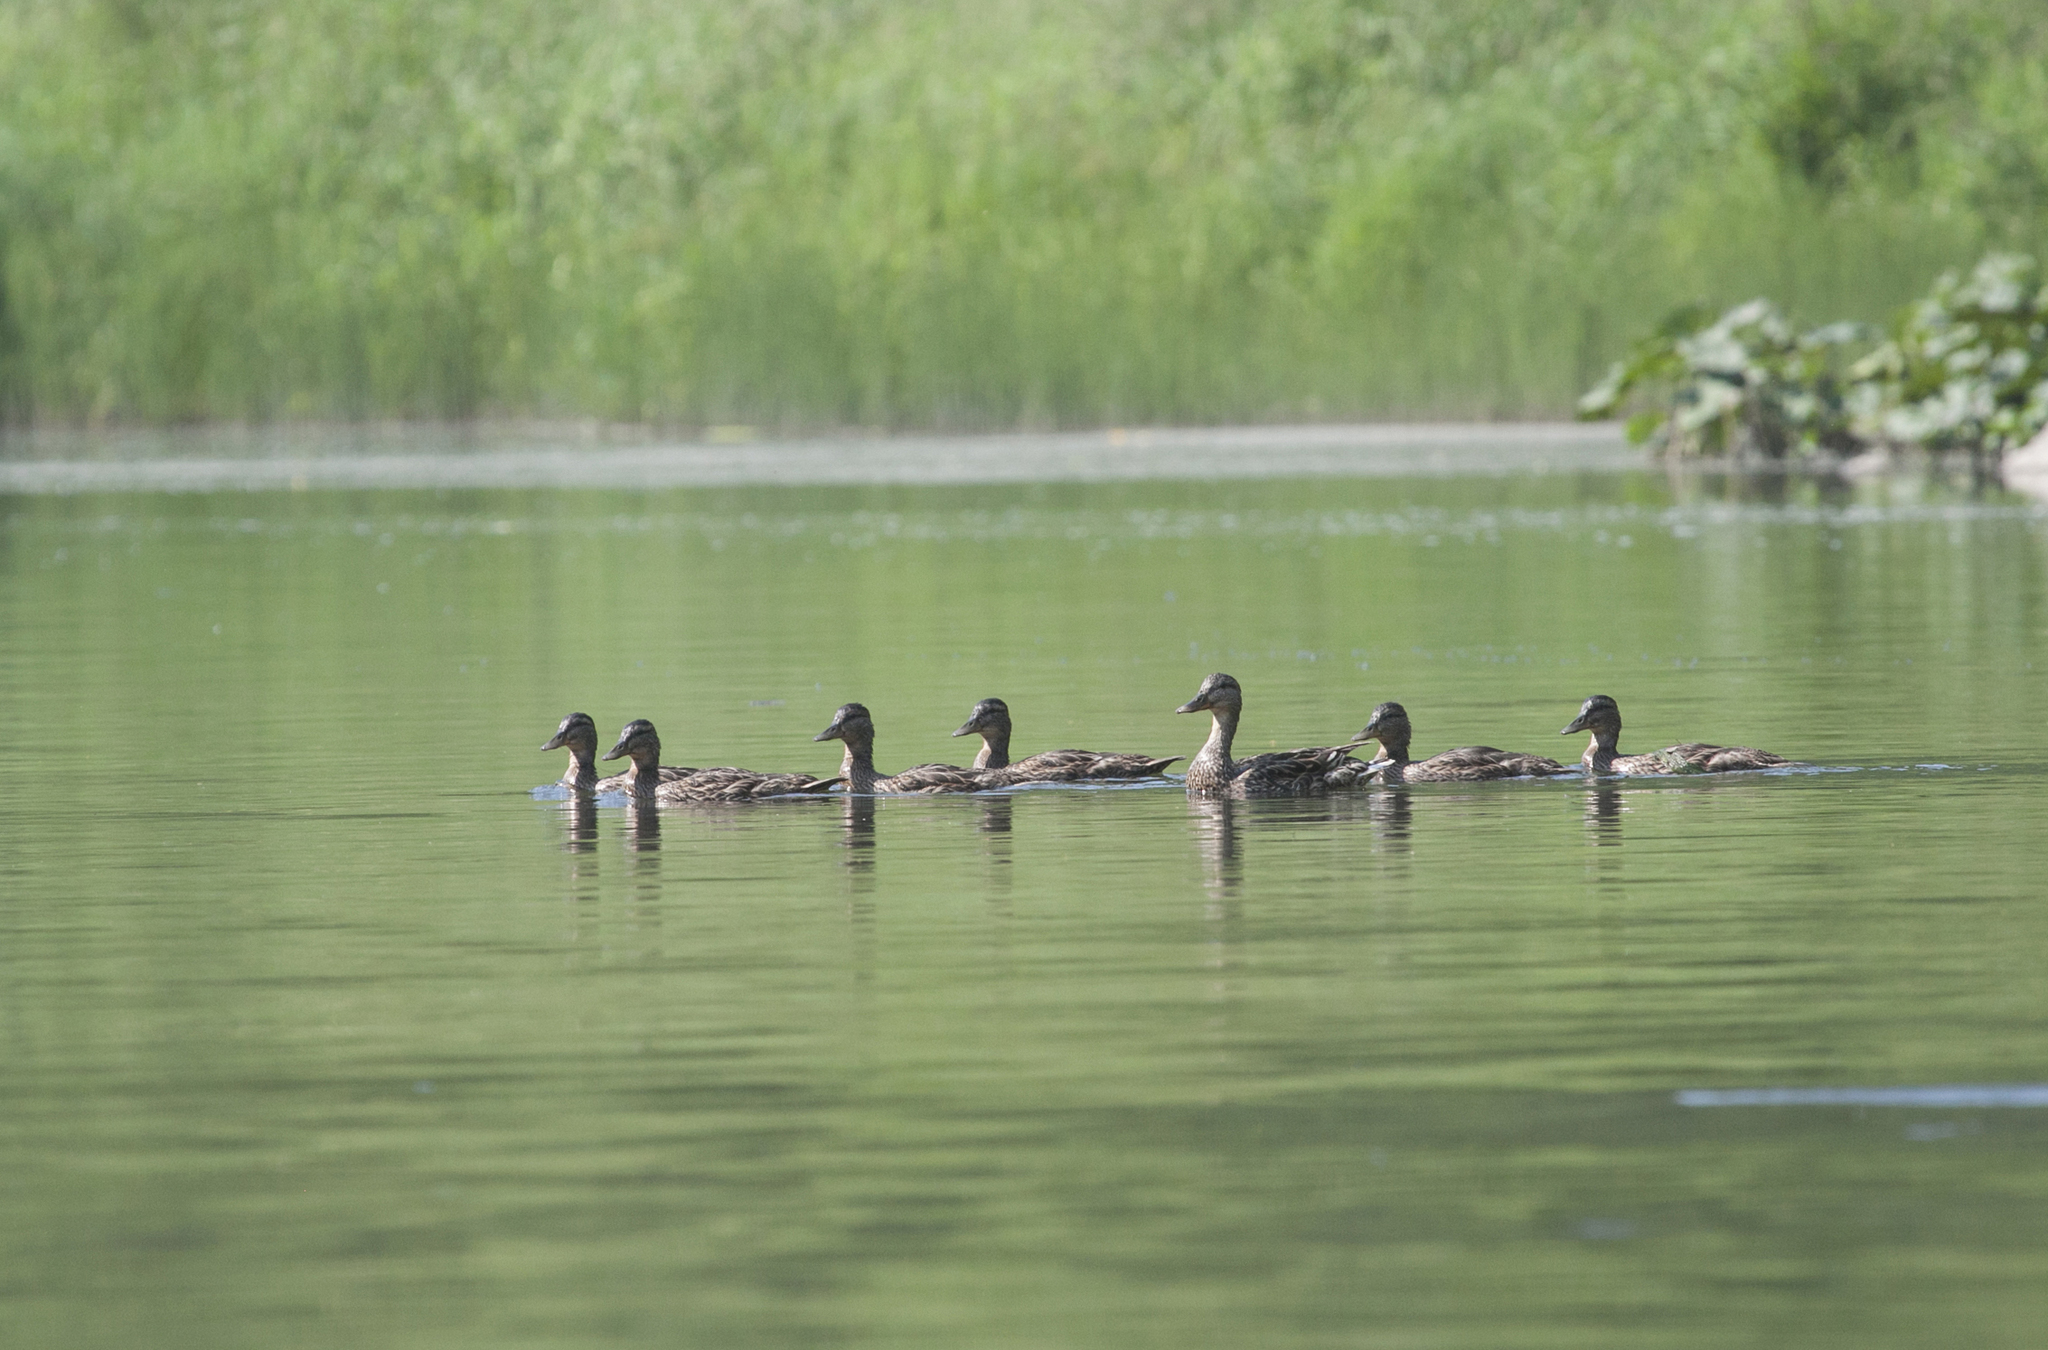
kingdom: Animalia
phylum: Chordata
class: Aves
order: Anseriformes
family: Anatidae
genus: Anas
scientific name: Anas platyrhynchos
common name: Mallard
